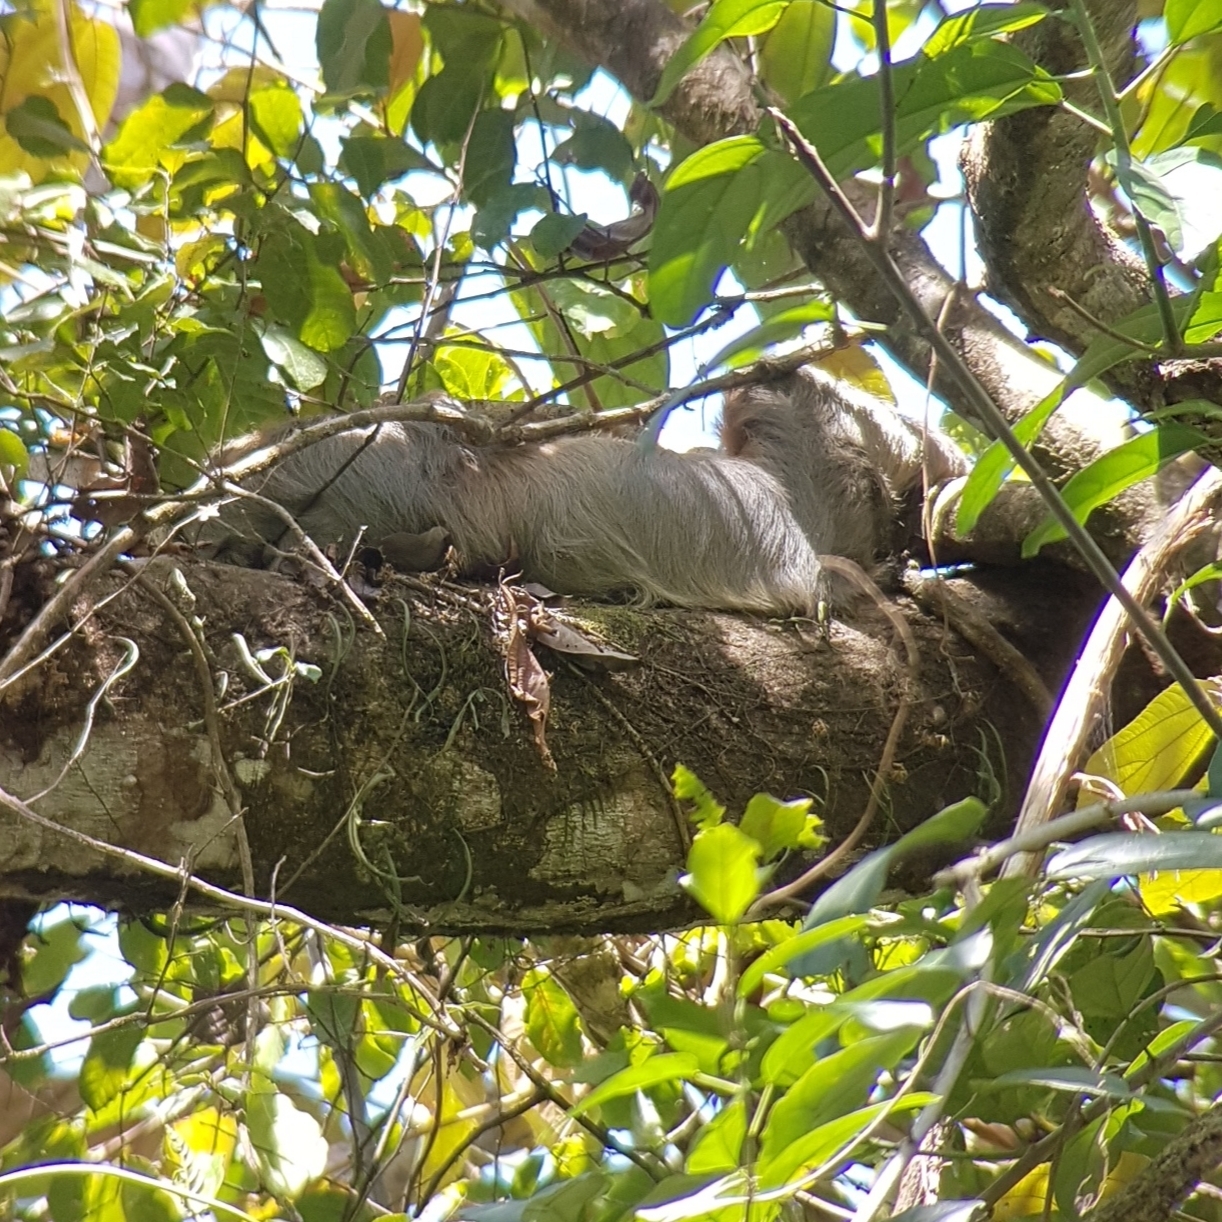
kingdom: Animalia
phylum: Chordata
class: Mammalia
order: Pilosa
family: Megalonychidae
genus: Choloepus
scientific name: Choloepus hoffmanni
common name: Hoffmann's two-toed sloth
